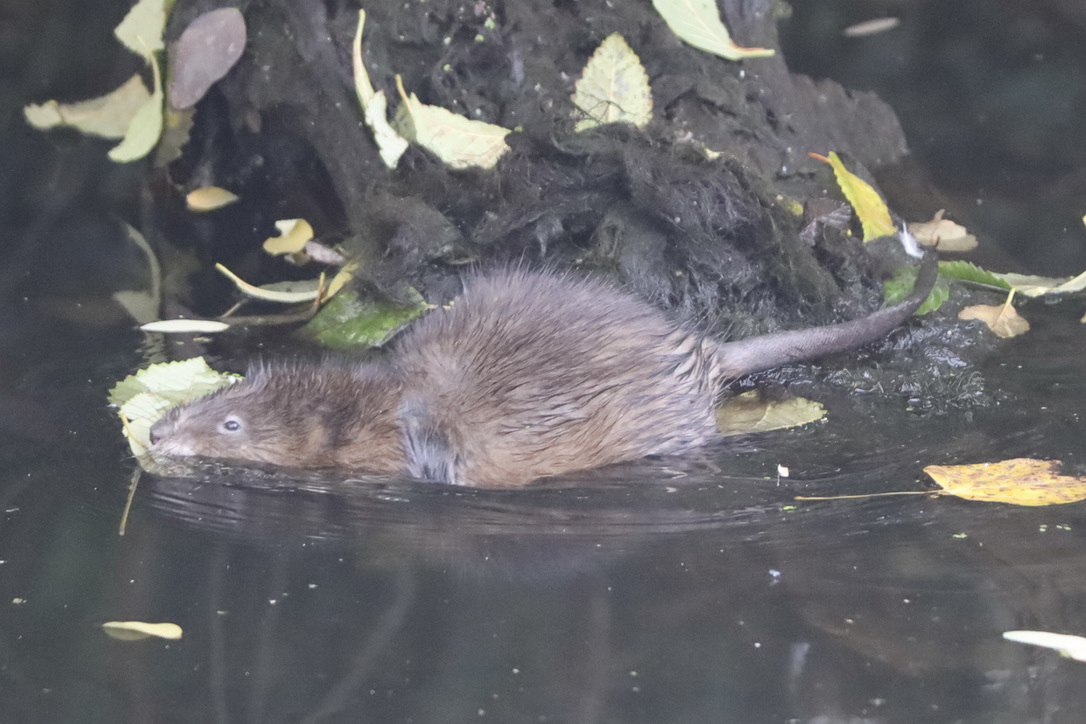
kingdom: Animalia
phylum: Chordata
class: Mammalia
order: Rodentia
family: Cricetidae
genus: Ondatra
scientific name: Ondatra zibethicus
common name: Muskrat
